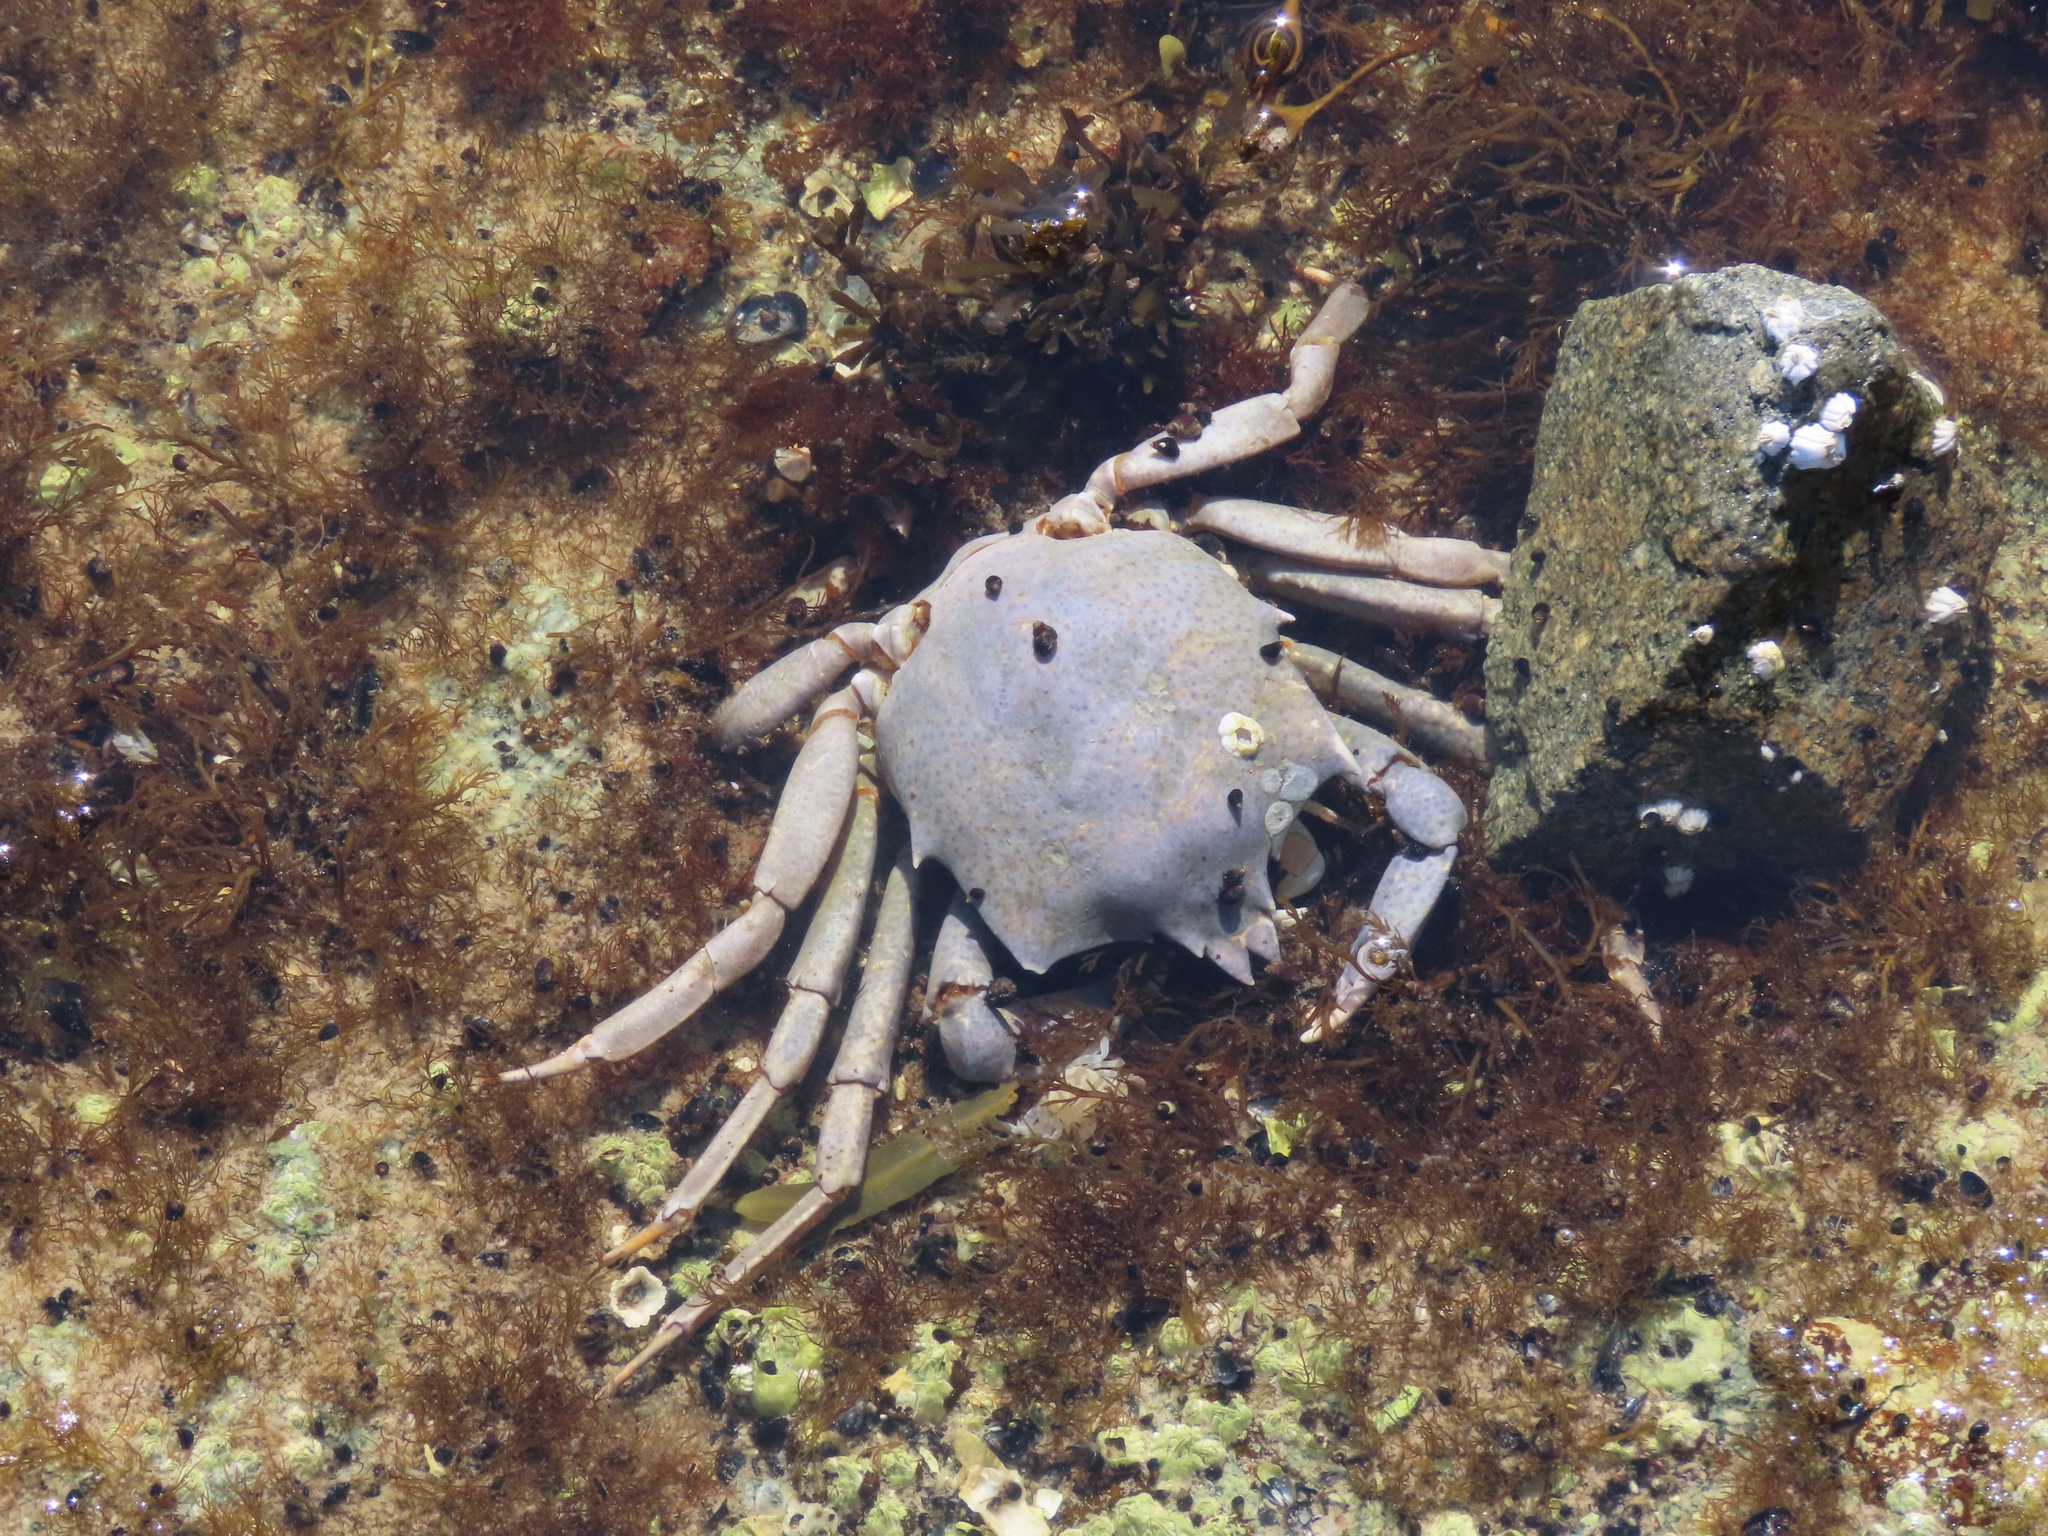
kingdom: Animalia
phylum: Arthropoda
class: Malacostraca
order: Decapoda
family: Epialtidae
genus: Pugettia
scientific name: Pugettia producta
